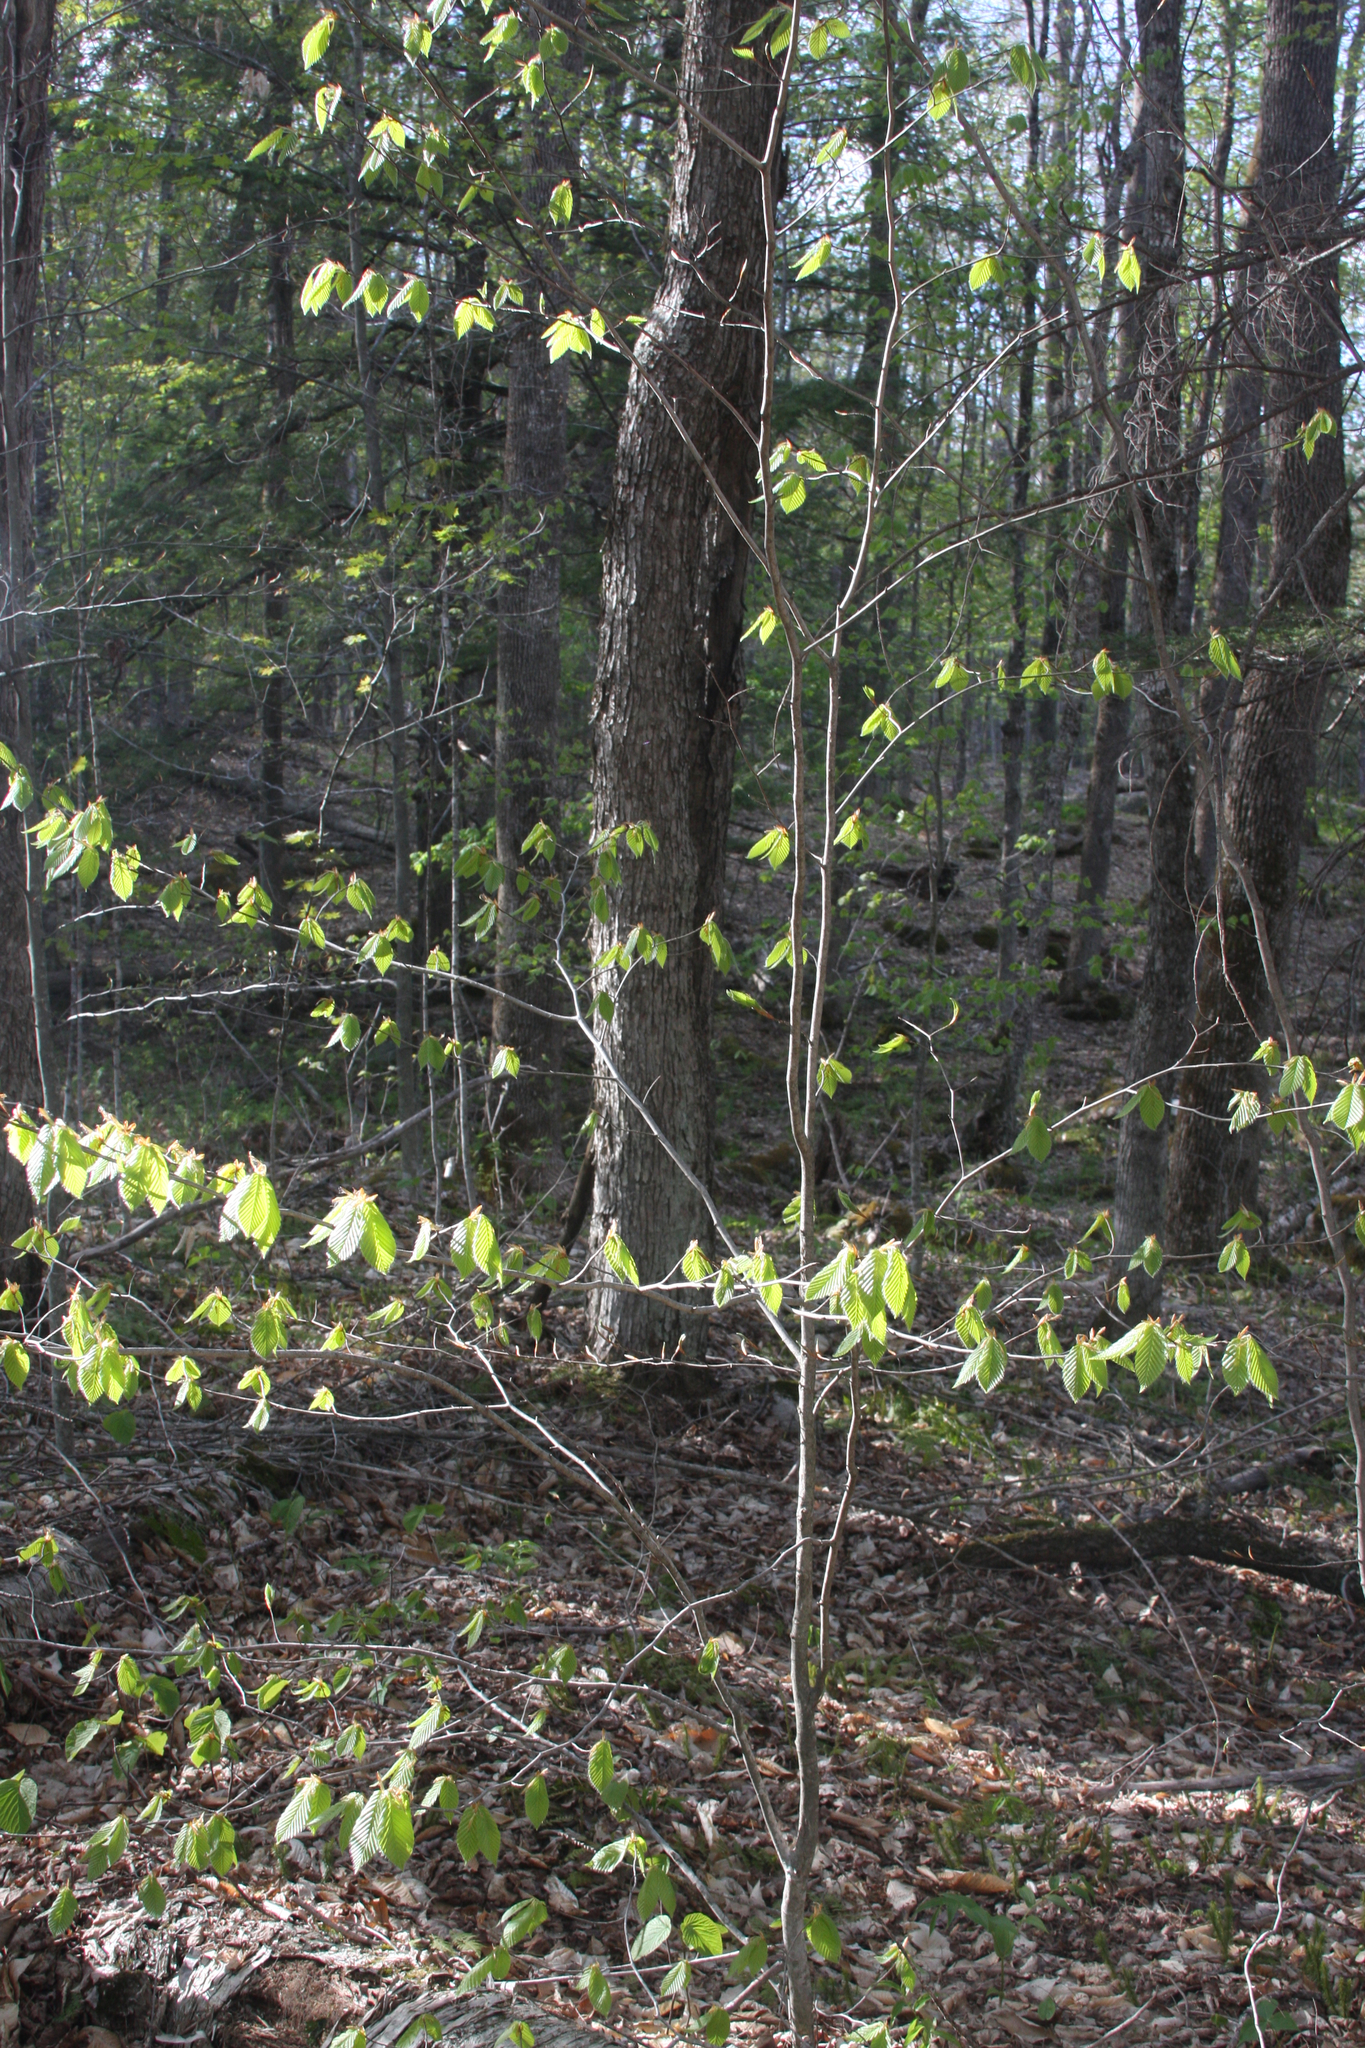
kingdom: Plantae
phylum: Tracheophyta
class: Magnoliopsida
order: Fagales
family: Fagaceae
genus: Fagus
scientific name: Fagus grandifolia
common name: American beech
